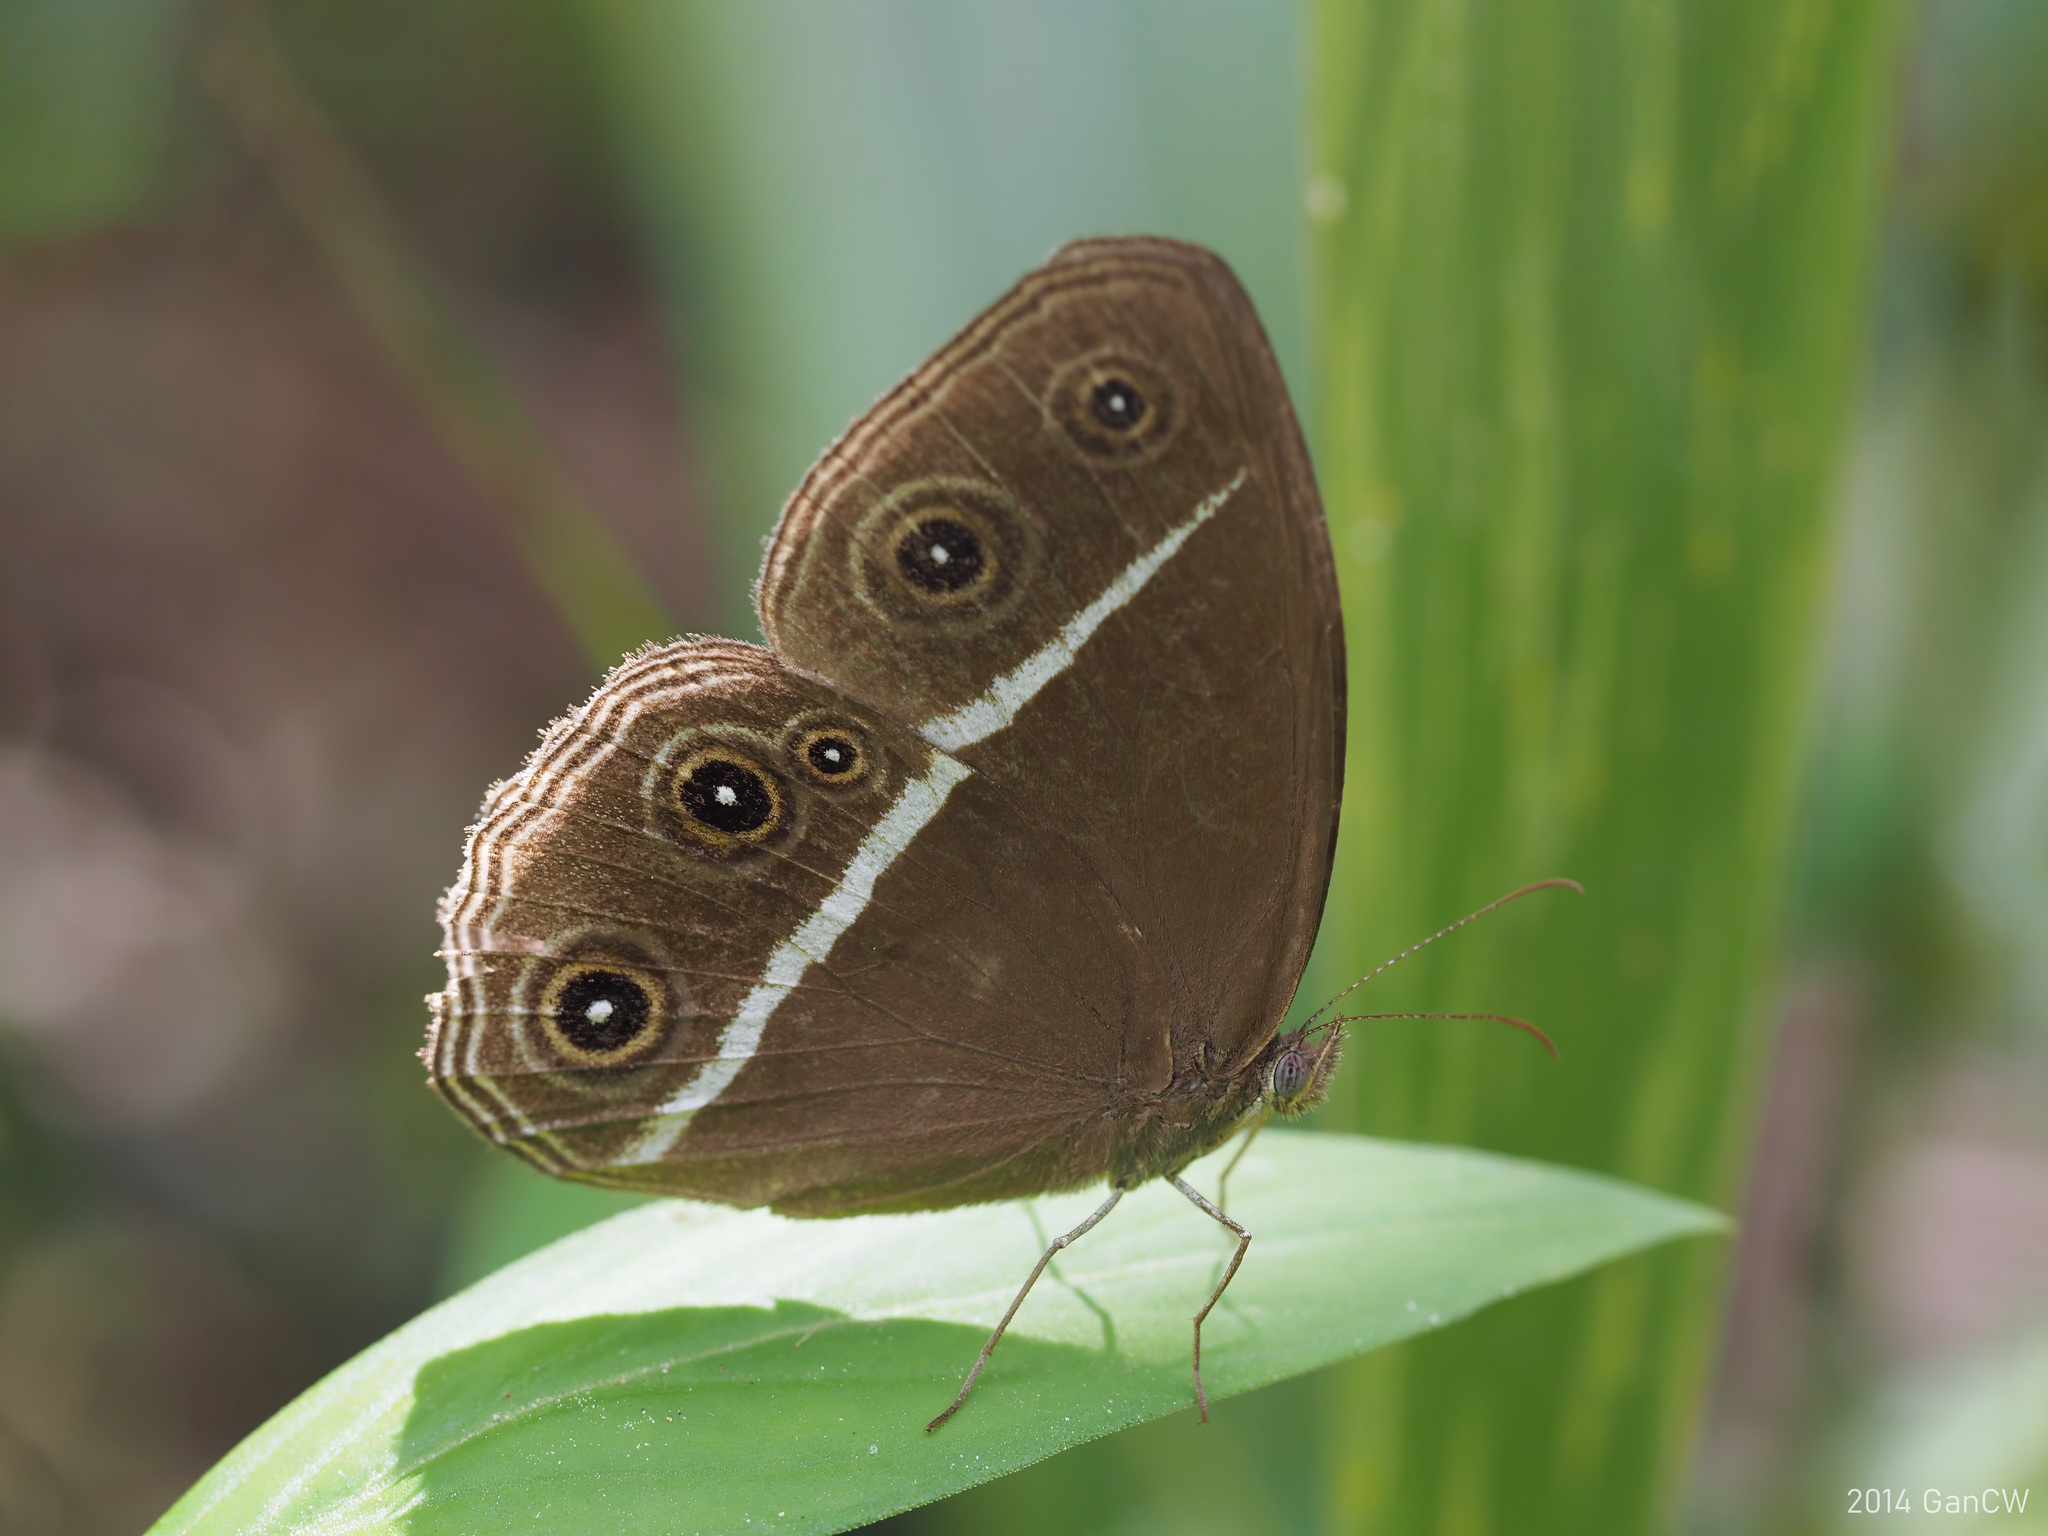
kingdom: Animalia
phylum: Arthropoda
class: Insecta
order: Lepidoptera
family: Nymphalidae
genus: Orsotriaena
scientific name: Orsotriaena medus
